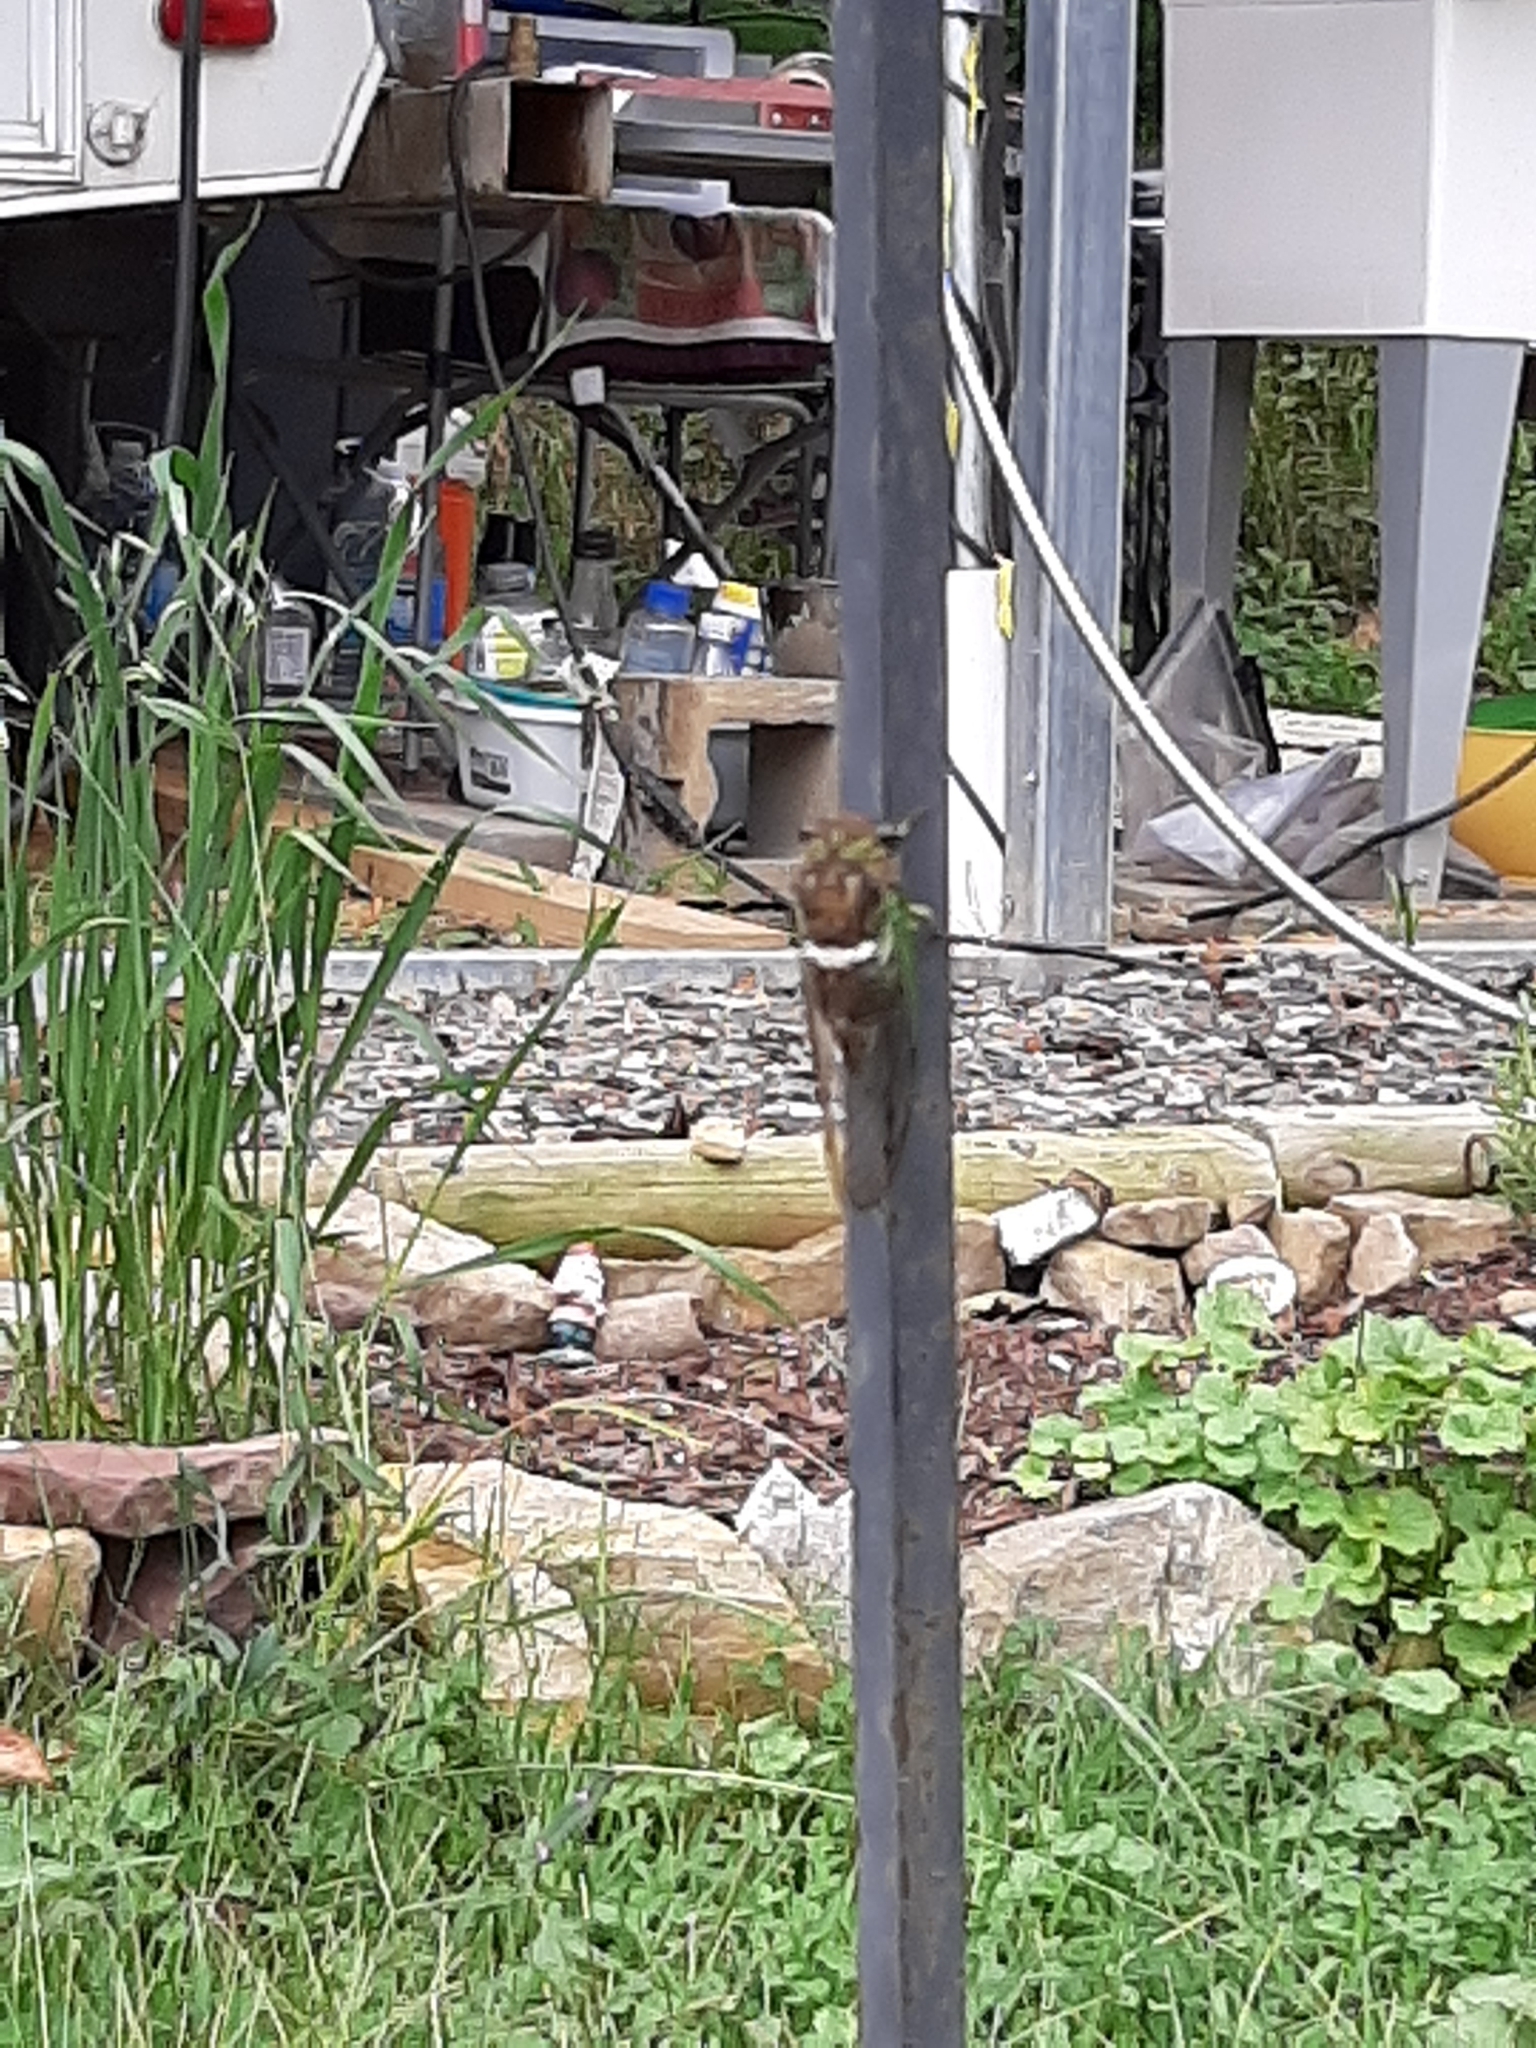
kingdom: Animalia
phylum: Arthropoda
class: Insecta
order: Hemiptera
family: Cicadidae
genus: Neotibicen
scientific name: Neotibicen tibicen
